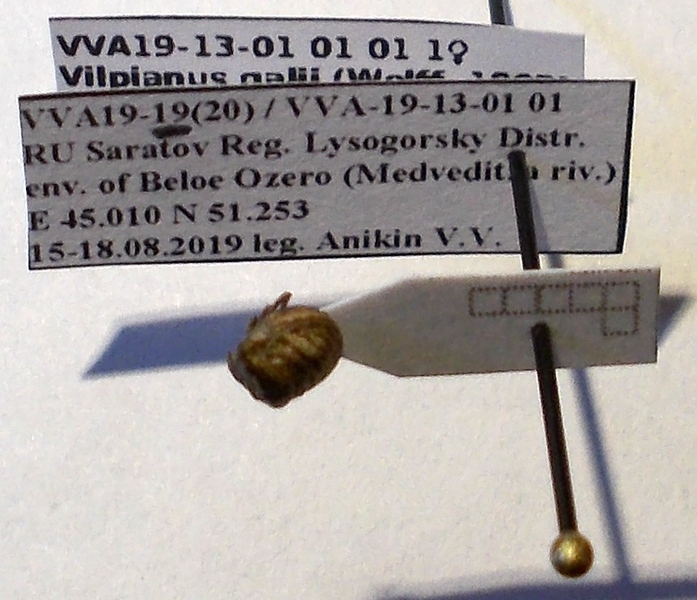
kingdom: Animalia
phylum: Arthropoda
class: Insecta
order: Hemiptera
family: Pentatomidae
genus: Vilpianus
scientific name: Vilpianus galii
